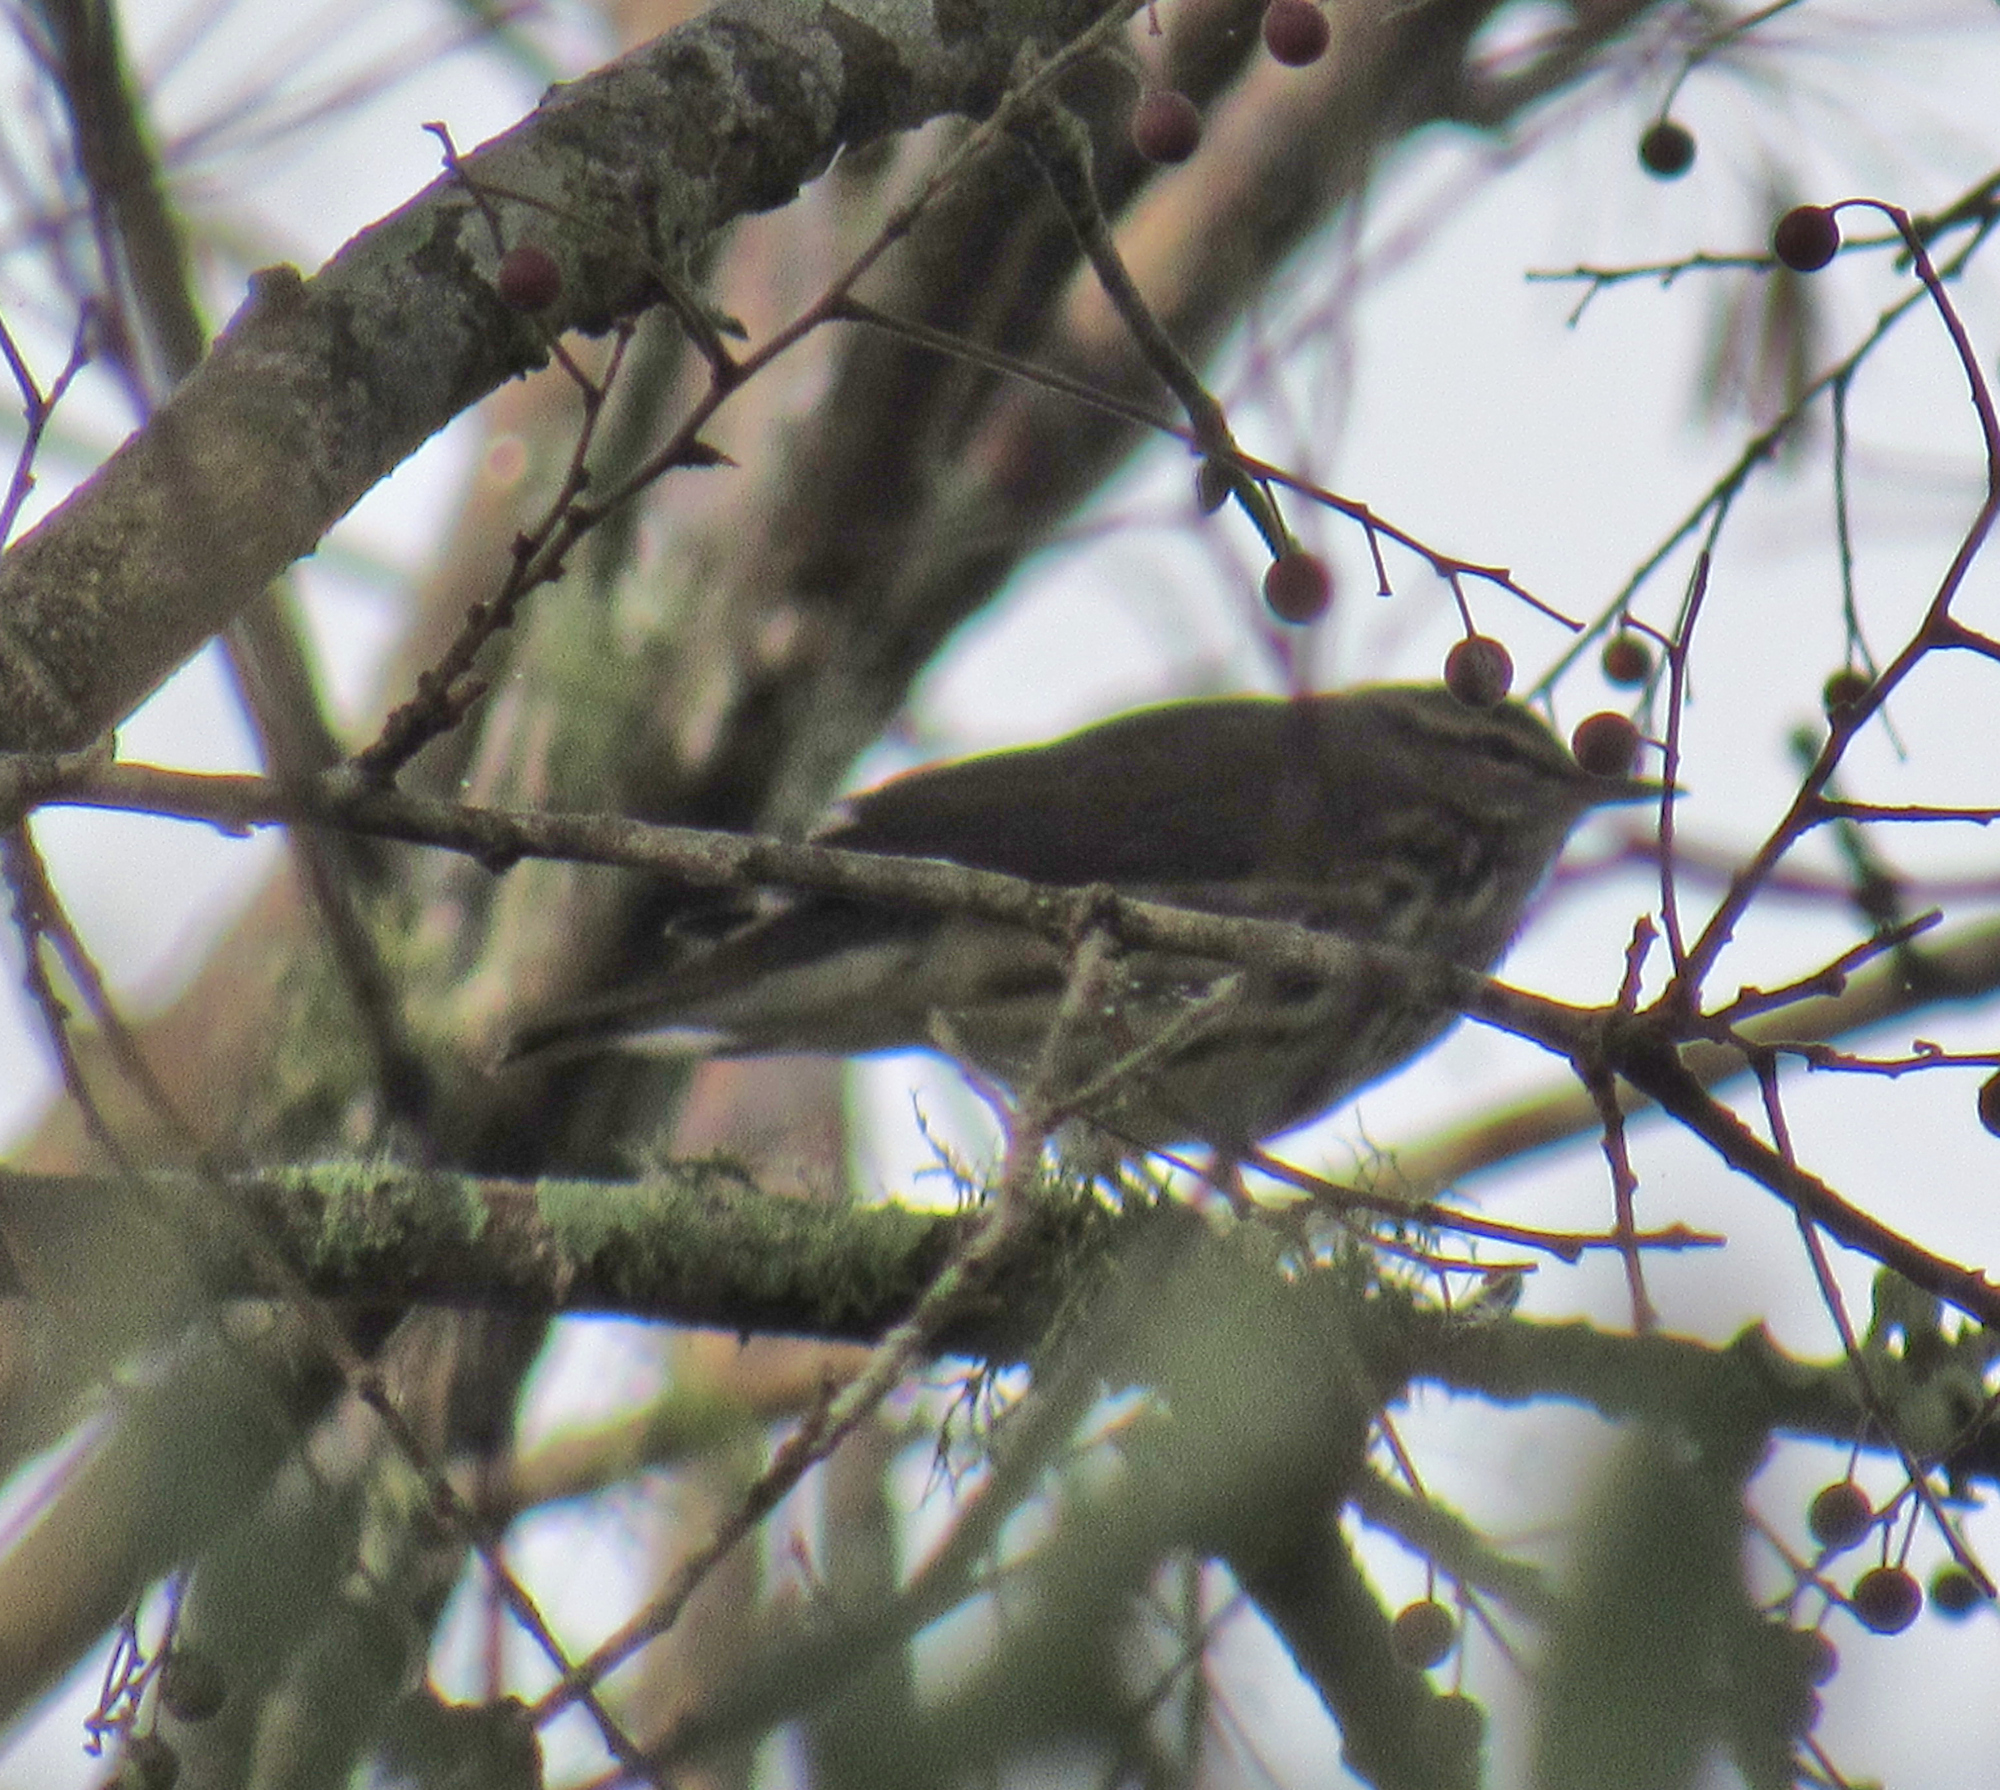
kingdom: Animalia
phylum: Chordata
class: Aves
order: Passeriformes
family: Parulidae
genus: Parkesia
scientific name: Parkesia noveboracensis
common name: Northern waterthrush
